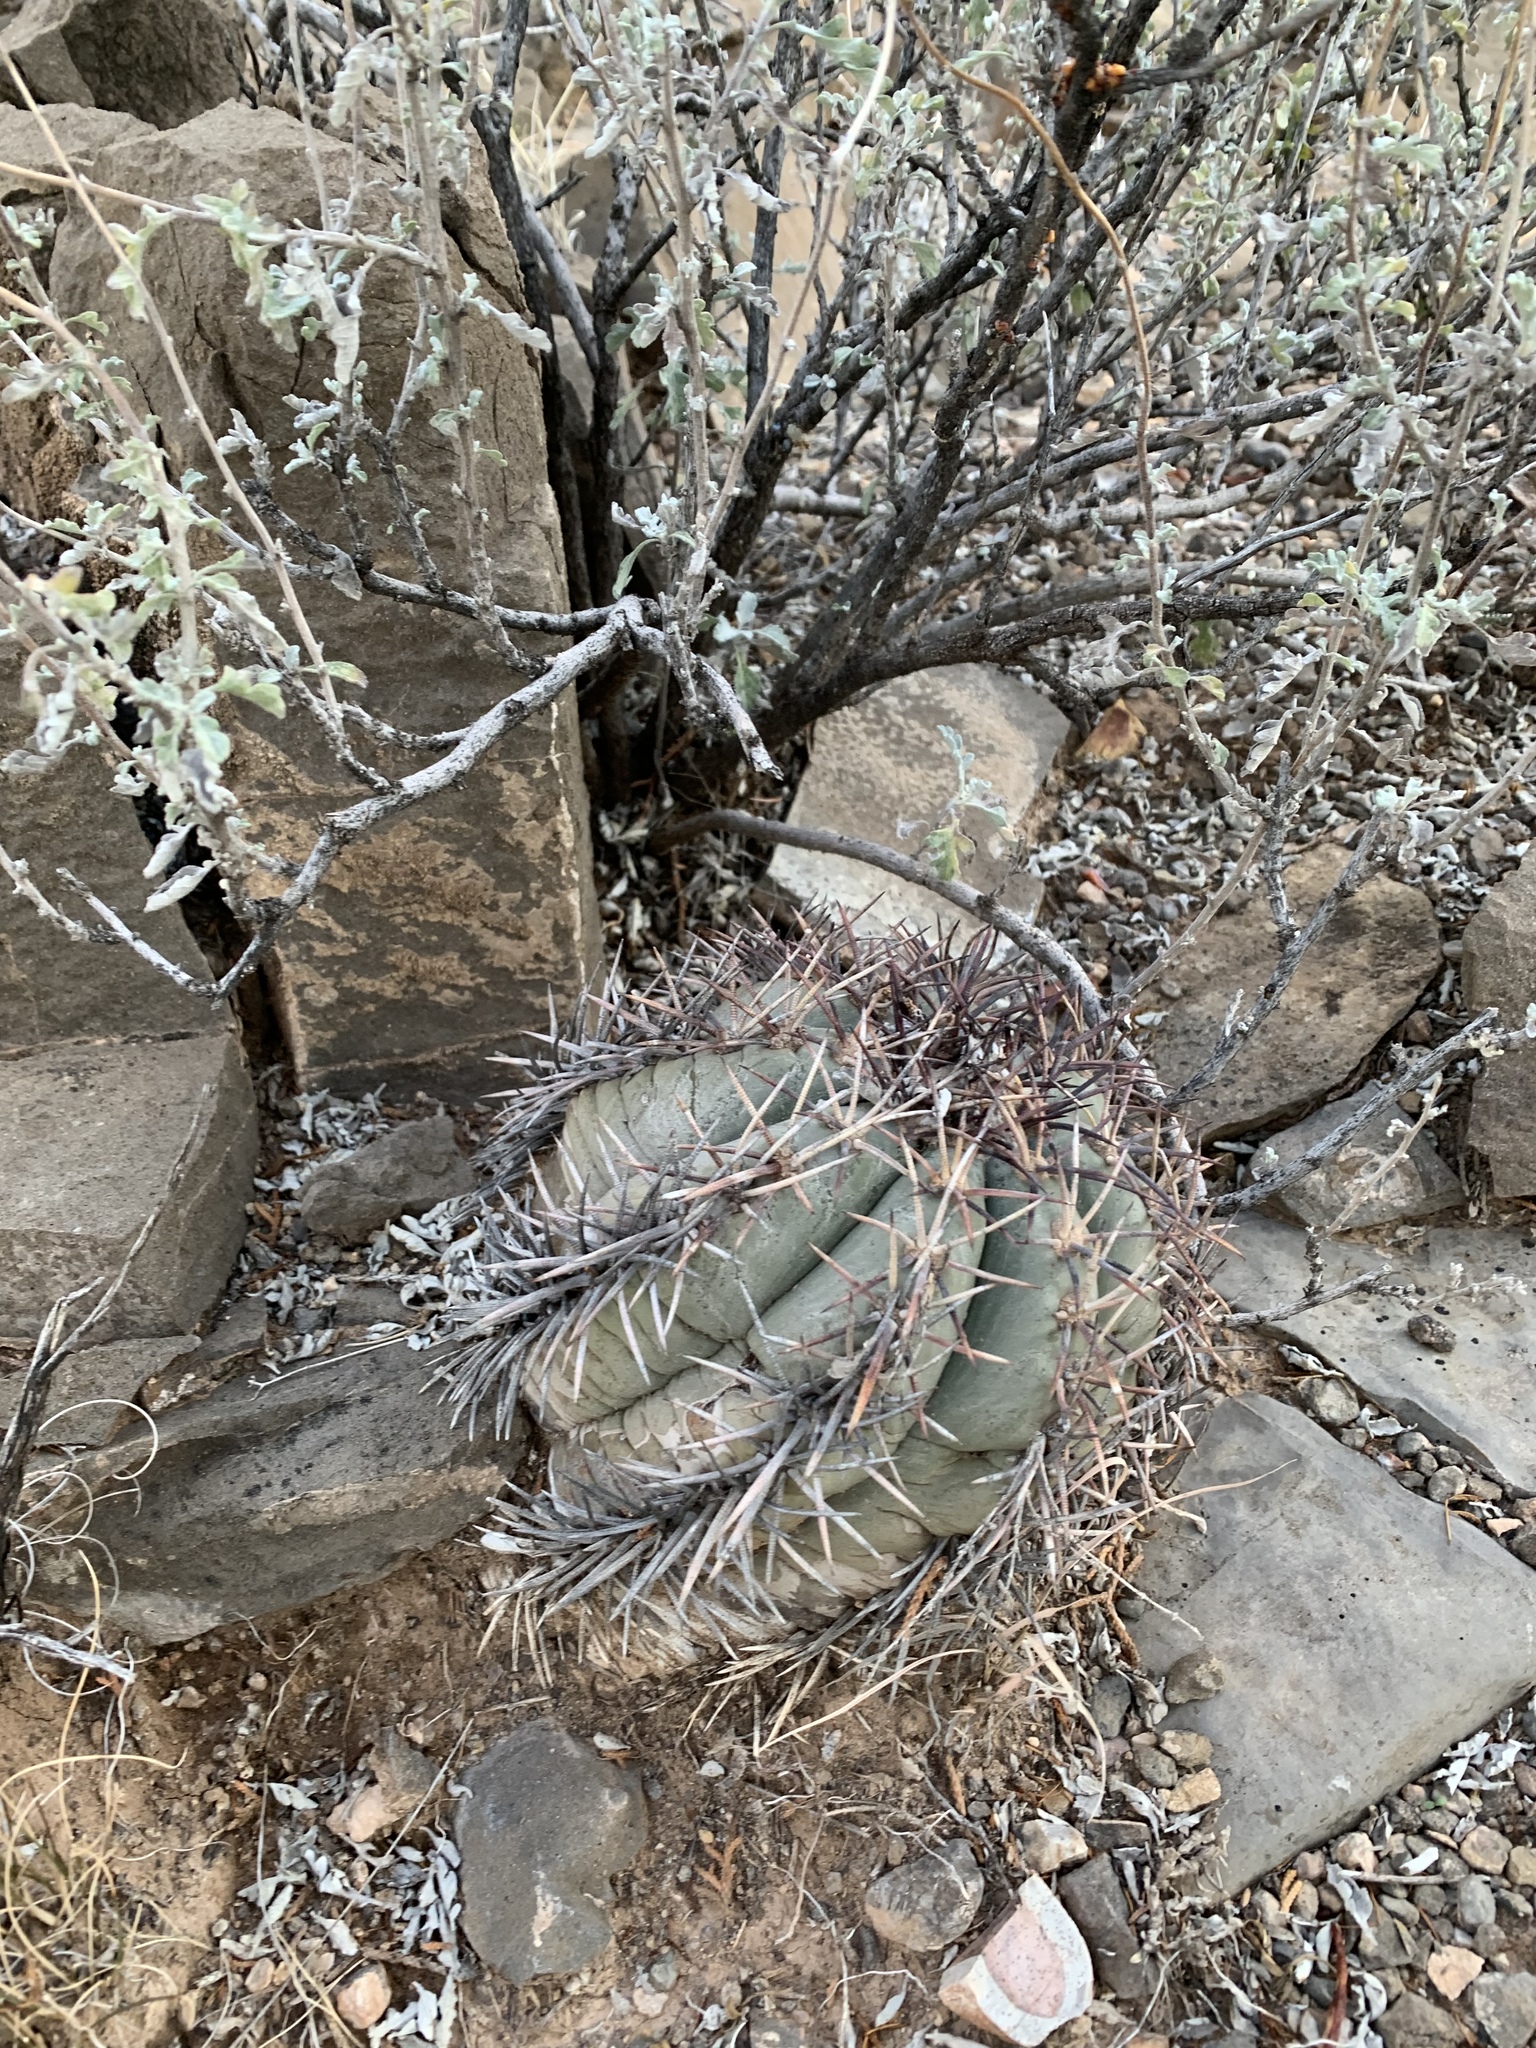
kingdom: Plantae
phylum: Tracheophyta
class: Magnoliopsida
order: Caryophyllales
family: Cactaceae
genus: Echinocactus
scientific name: Echinocactus horizonthalonius
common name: Devilshead
